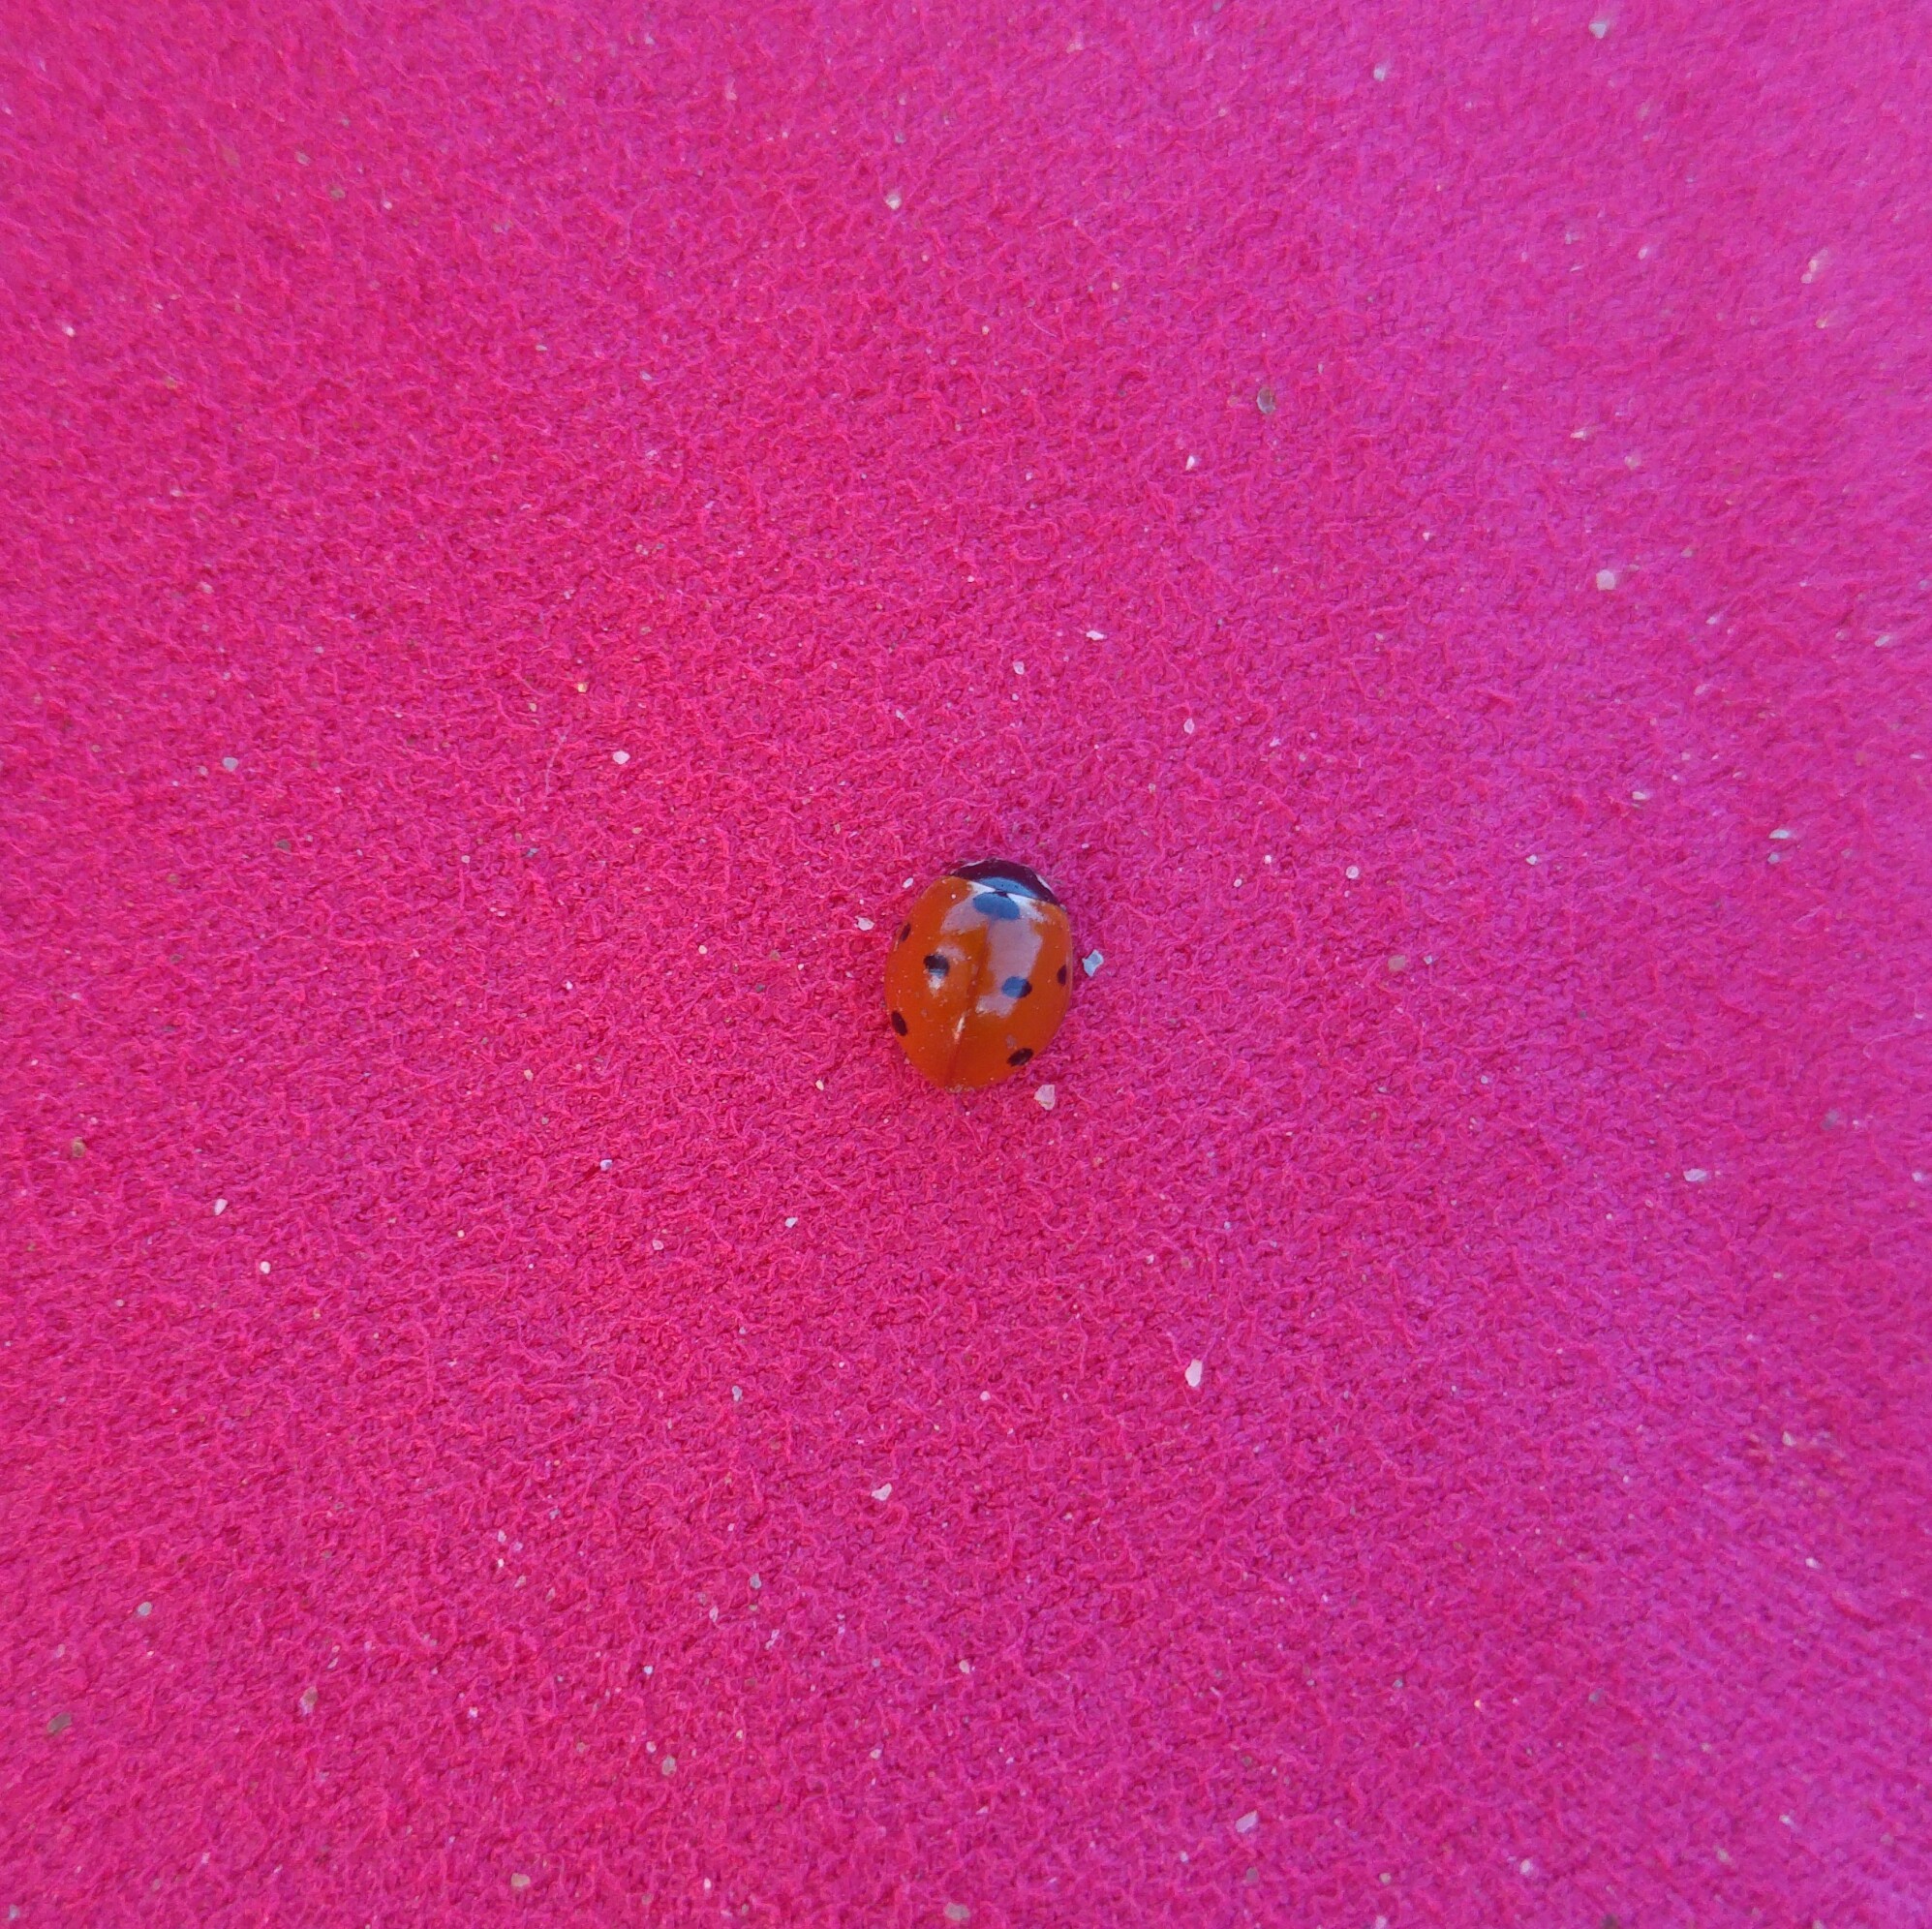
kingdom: Animalia
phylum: Arthropoda
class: Insecta
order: Coleoptera
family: Coccinellidae
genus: Coccinella
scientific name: Coccinella septempunctata
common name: Sevenspotted lady beetle
